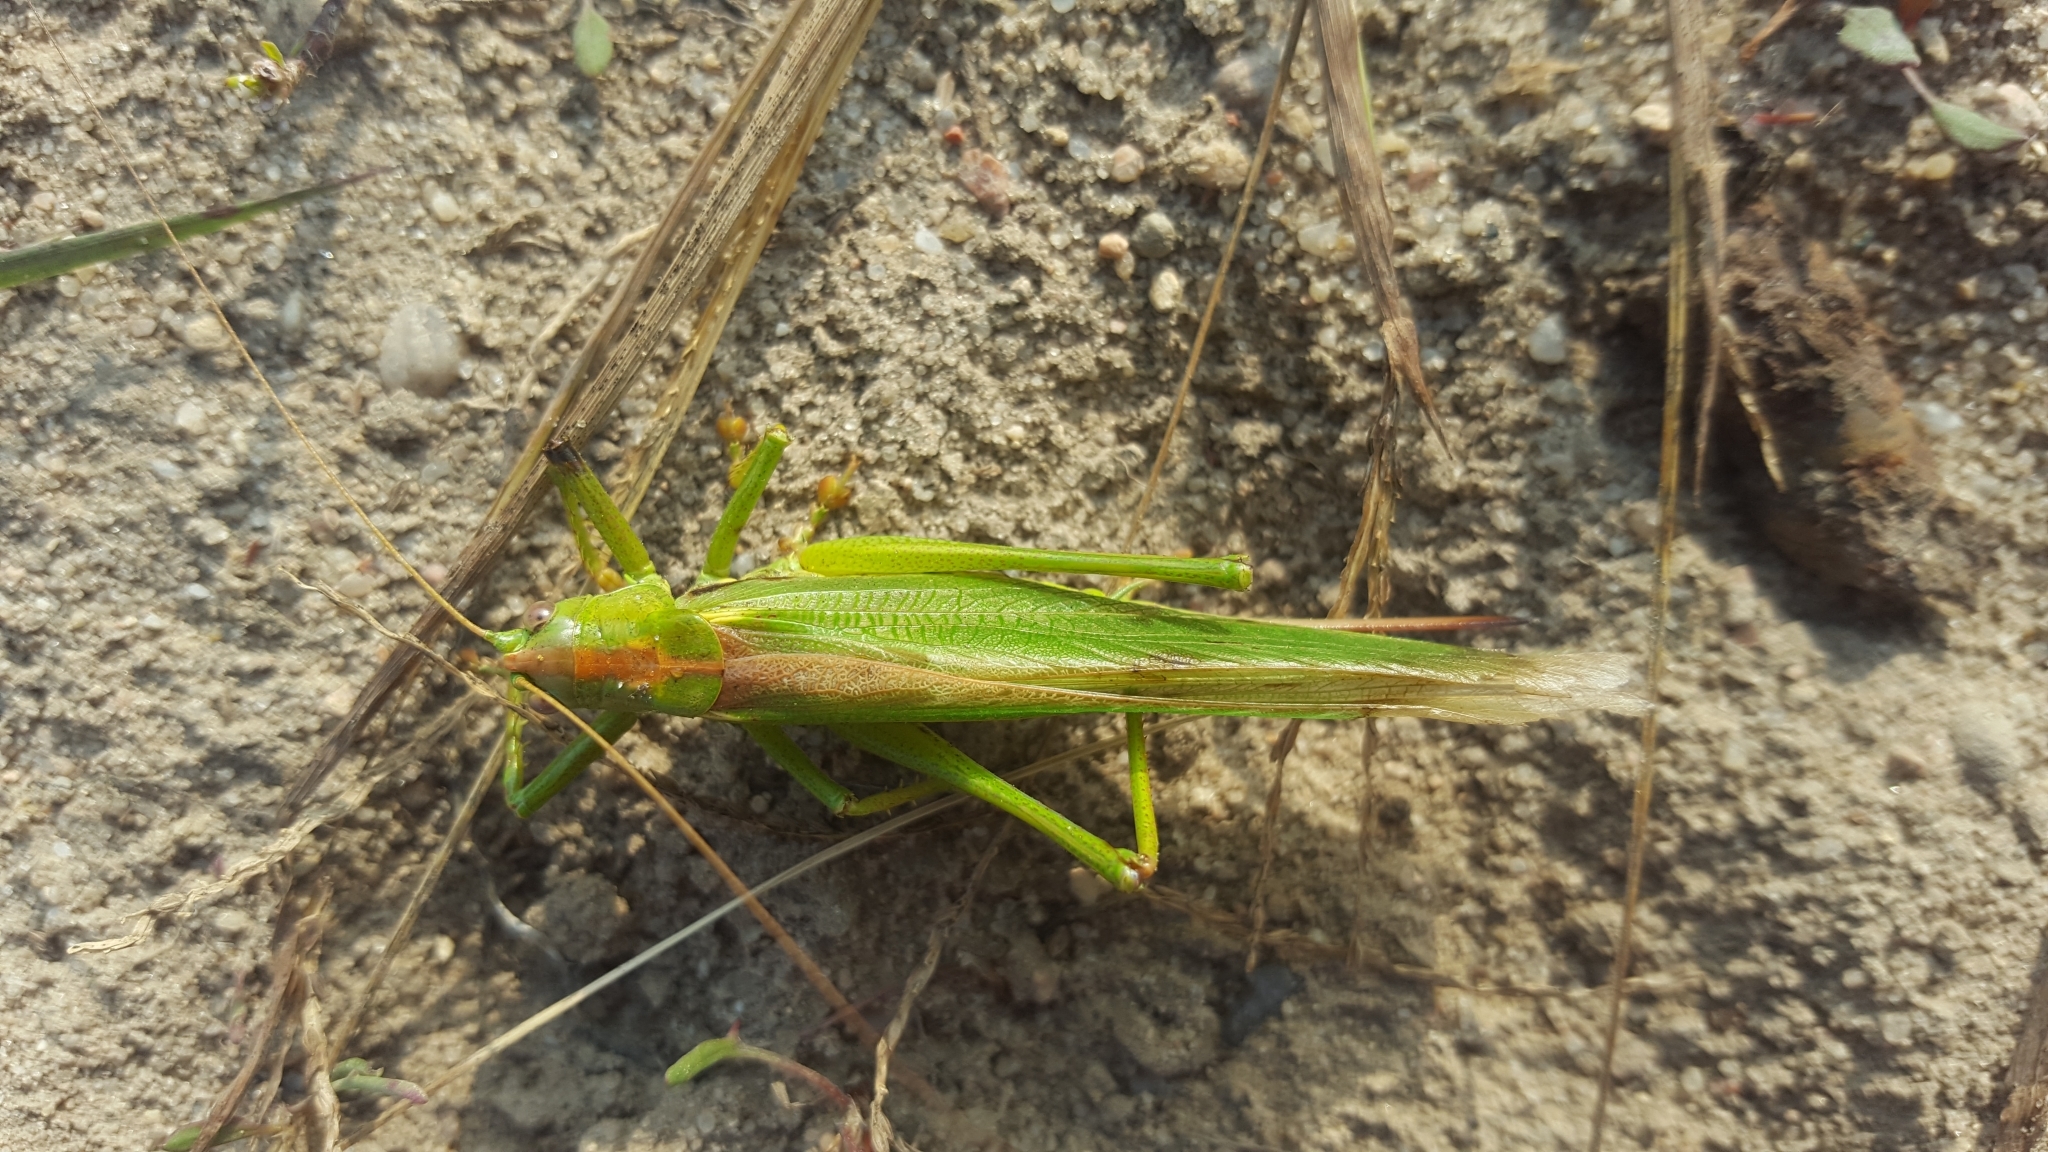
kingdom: Animalia
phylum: Arthropoda
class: Insecta
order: Orthoptera
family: Tettigoniidae
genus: Tettigonia
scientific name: Tettigonia viridissima
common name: Great green bush-cricket
